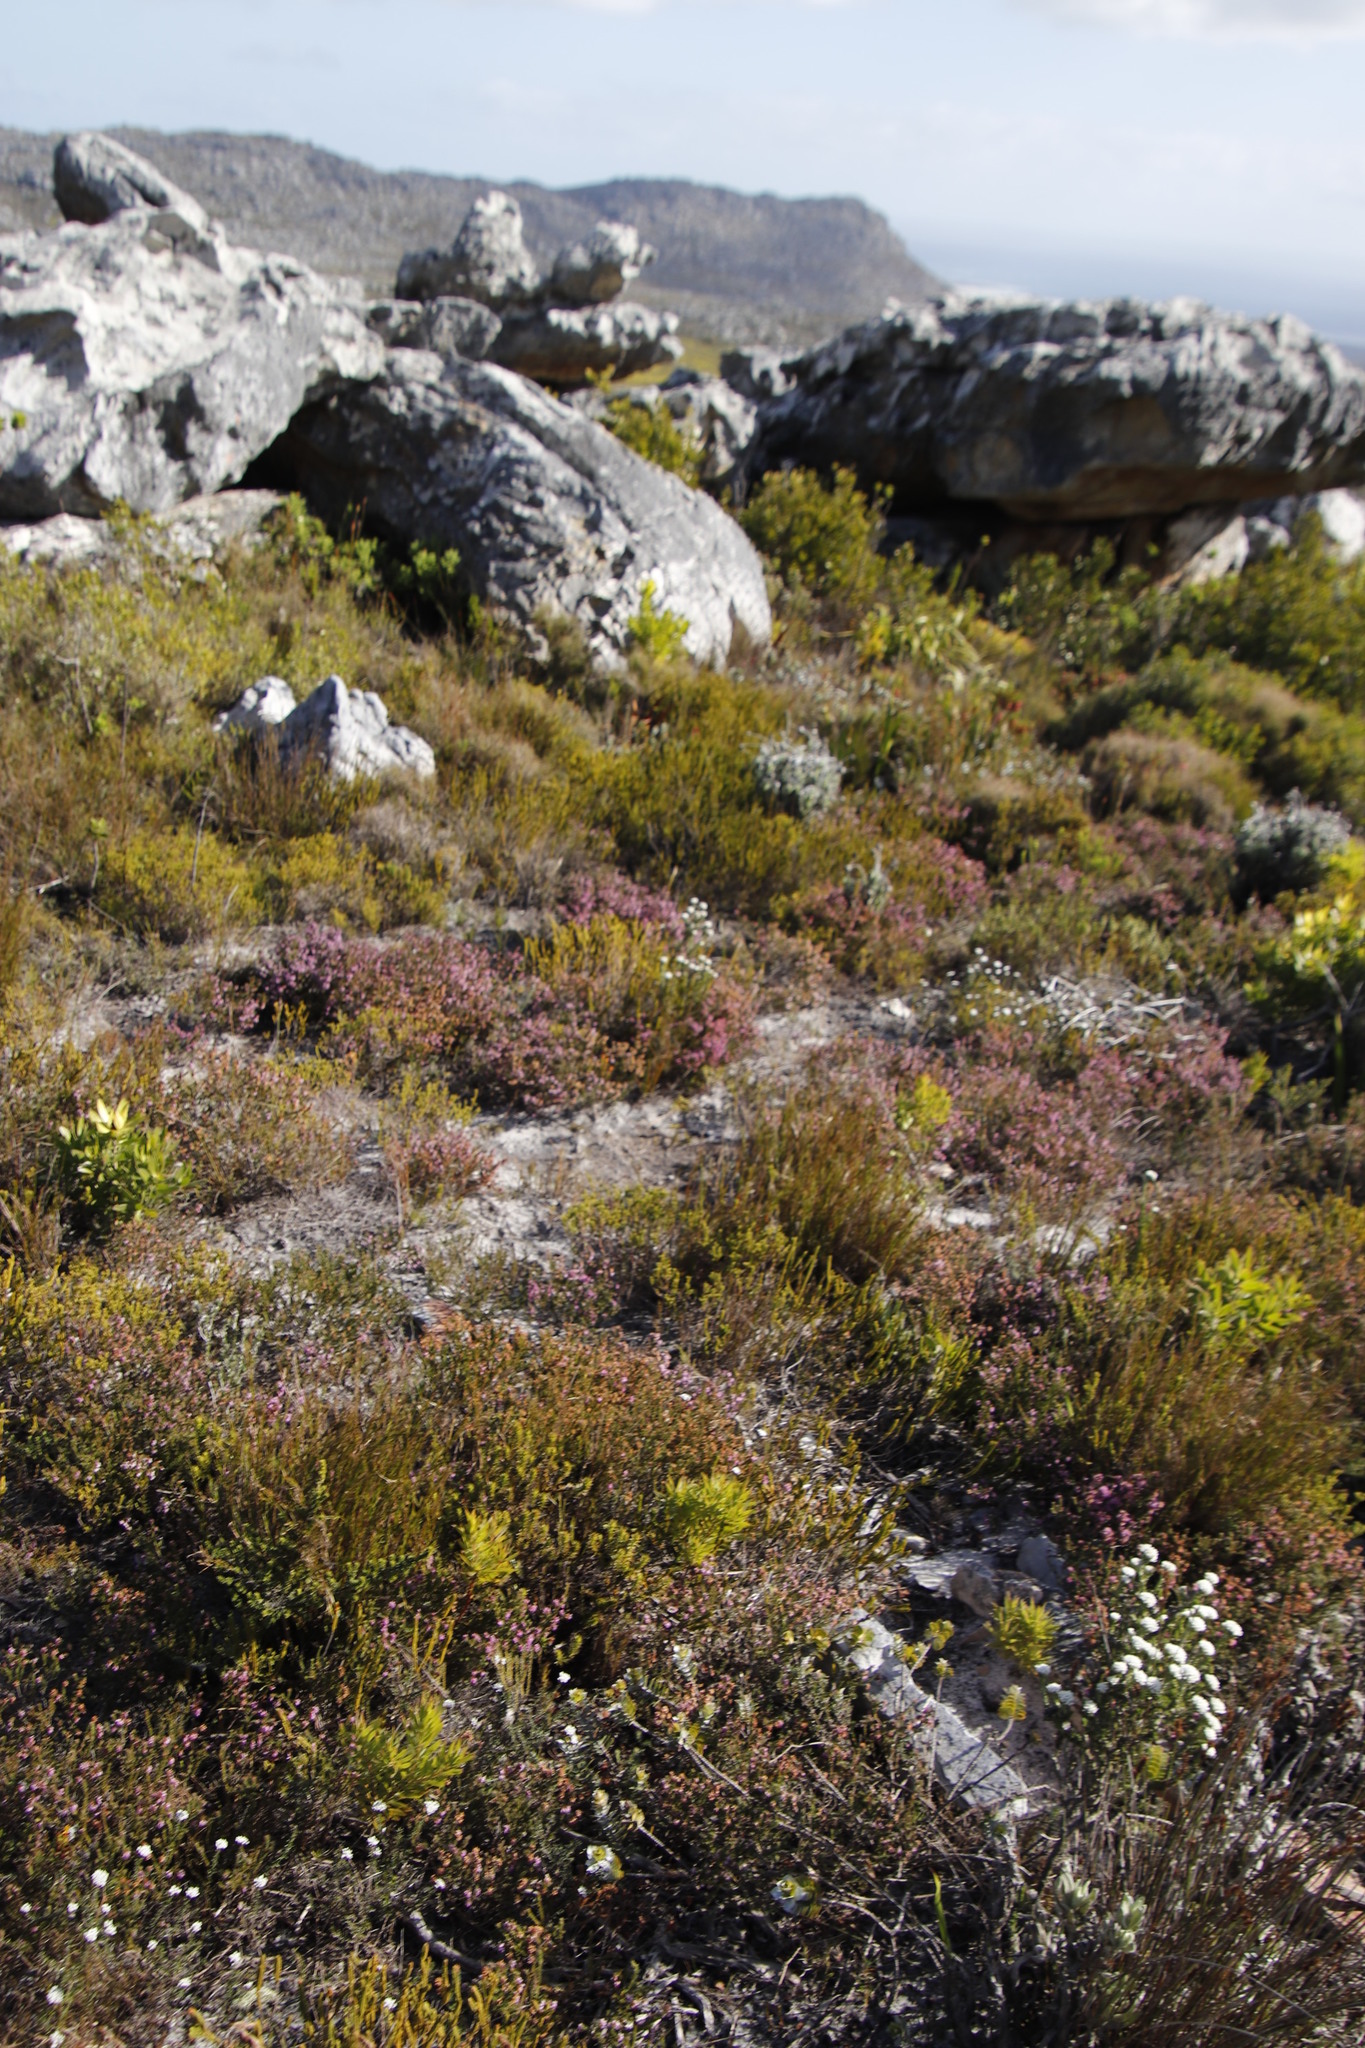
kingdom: Plantae
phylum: Tracheophyta
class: Magnoliopsida
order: Ericales
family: Ericaceae
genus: Erica
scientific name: Erica glabella
